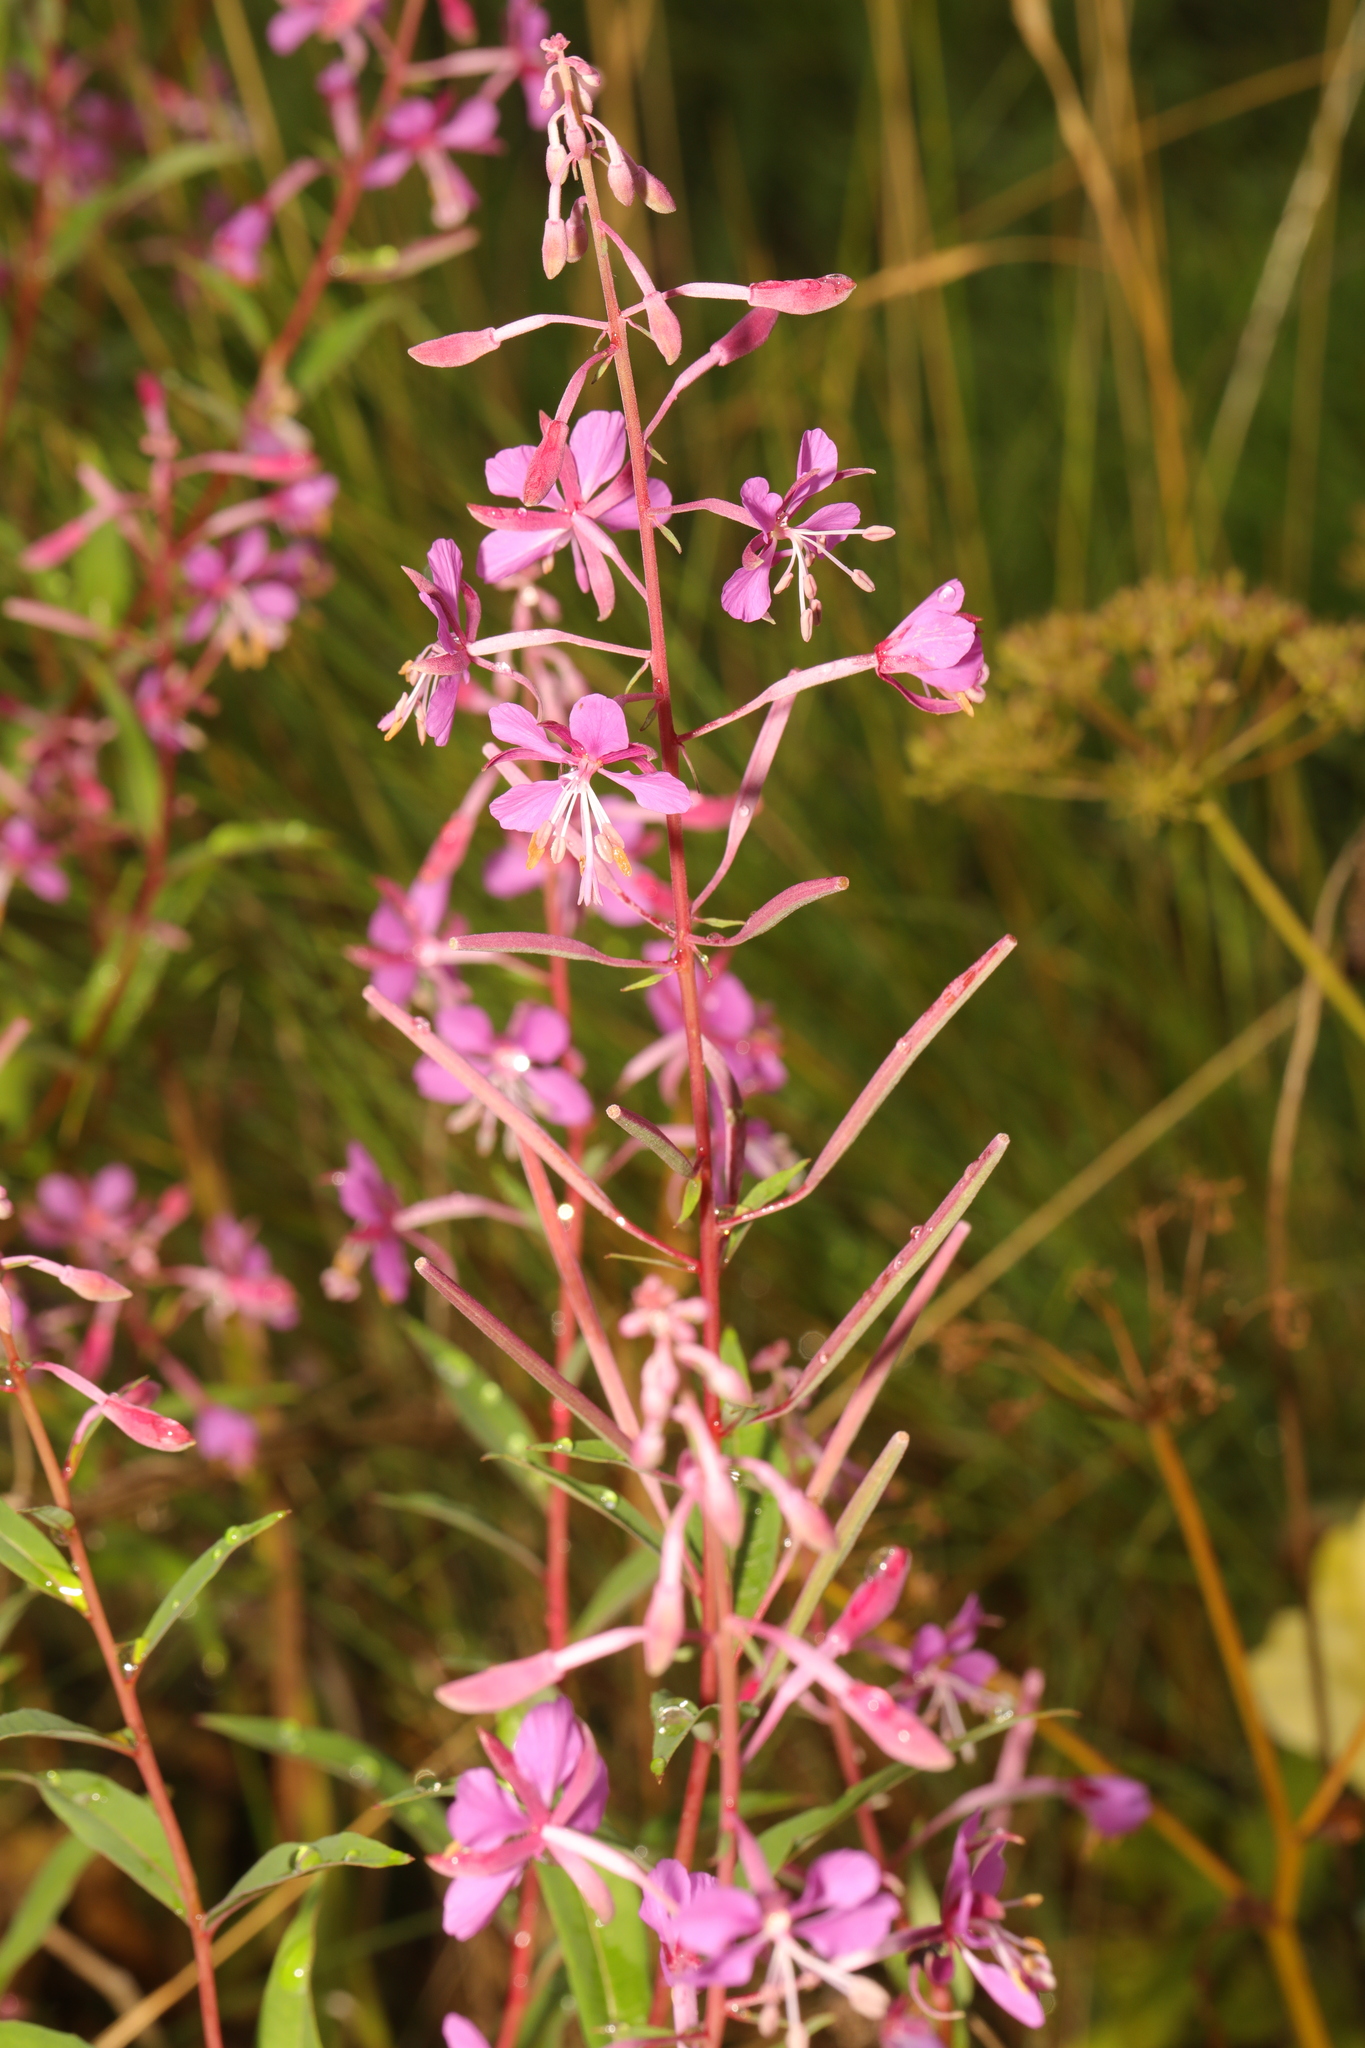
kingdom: Plantae
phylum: Tracheophyta
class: Magnoliopsida
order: Myrtales
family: Onagraceae
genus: Chamaenerion
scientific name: Chamaenerion angustifolium
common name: Fireweed
